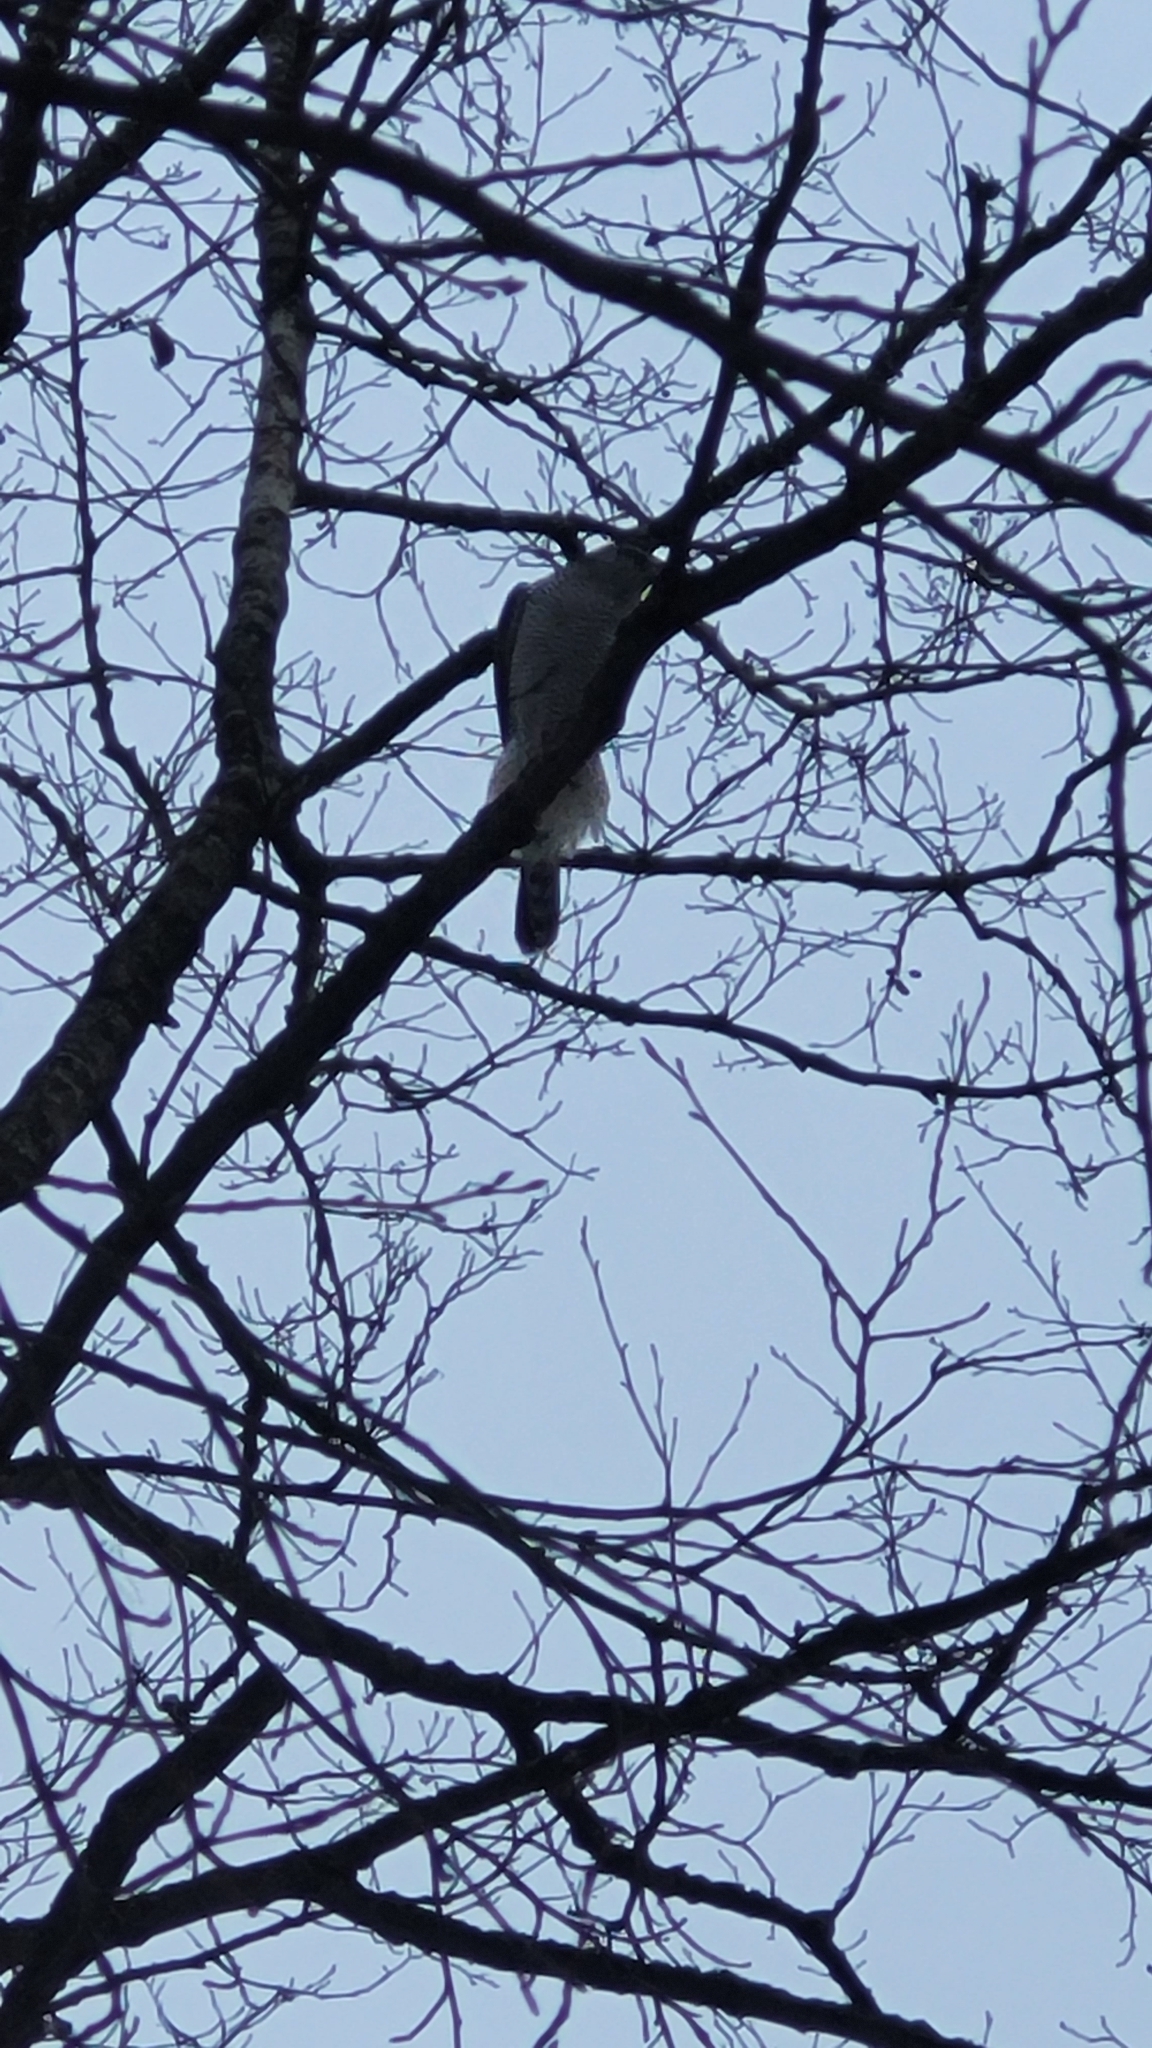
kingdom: Animalia
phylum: Chordata
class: Aves
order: Accipitriformes
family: Accipitridae
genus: Accipiter
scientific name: Accipiter gentilis
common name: Northern goshawk
